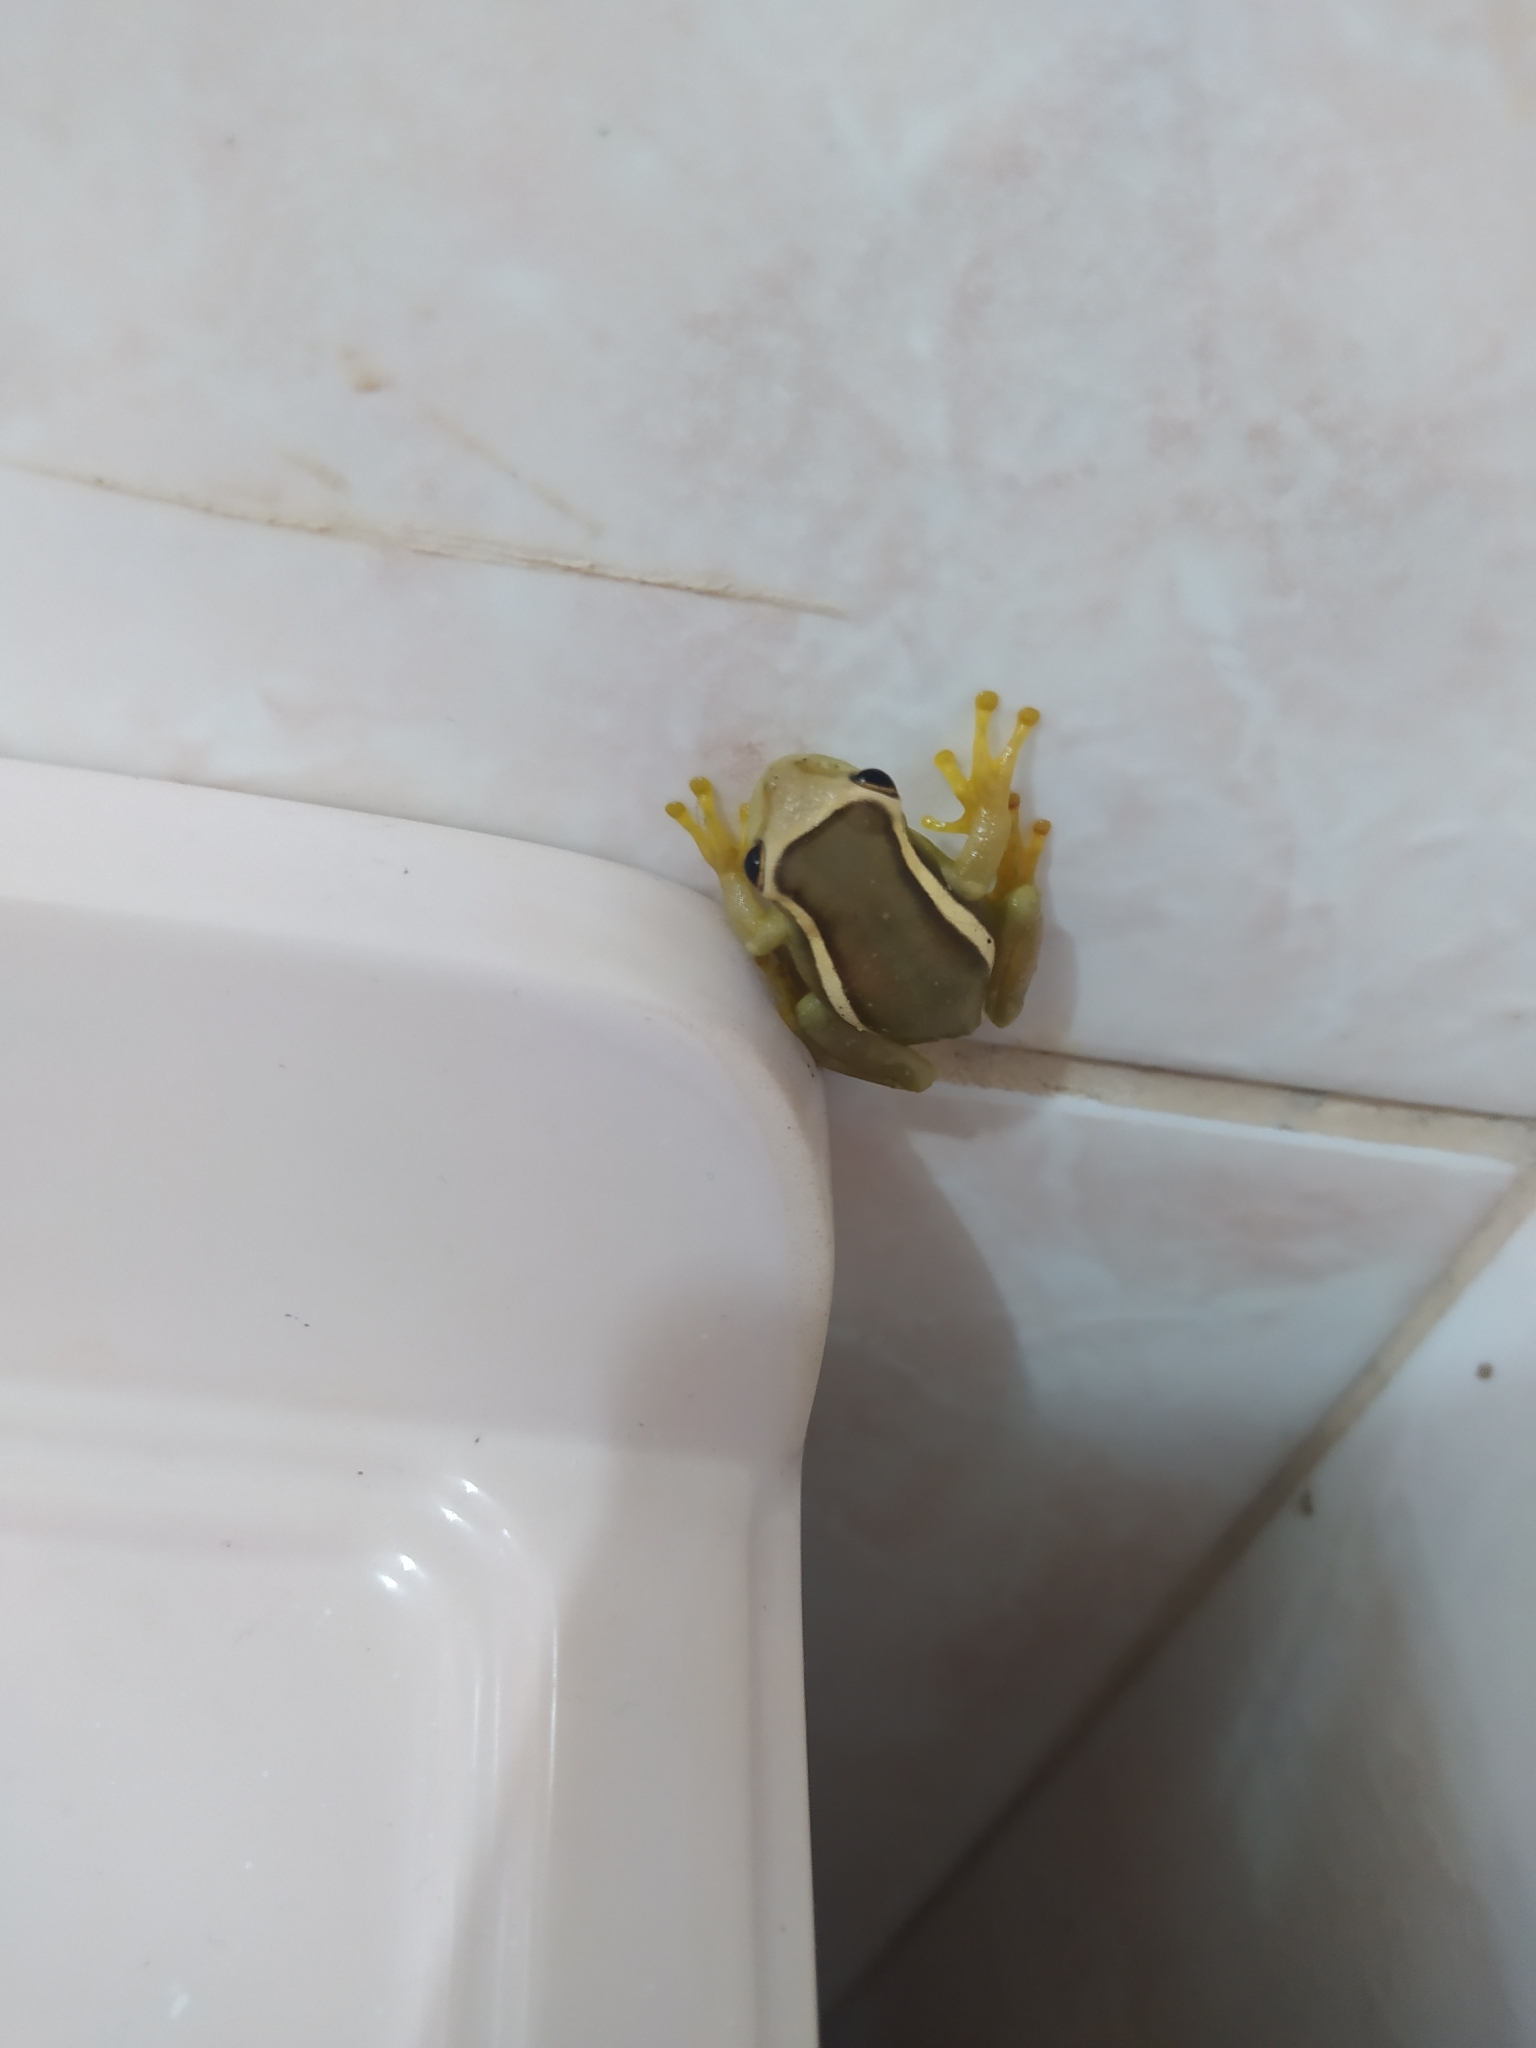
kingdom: Animalia
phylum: Chordata
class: Amphibia
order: Anura
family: Hylidae
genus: Trachycephalus
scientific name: Trachycephalus mesophaeus
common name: Porto alegre golden-eyed treefrog
